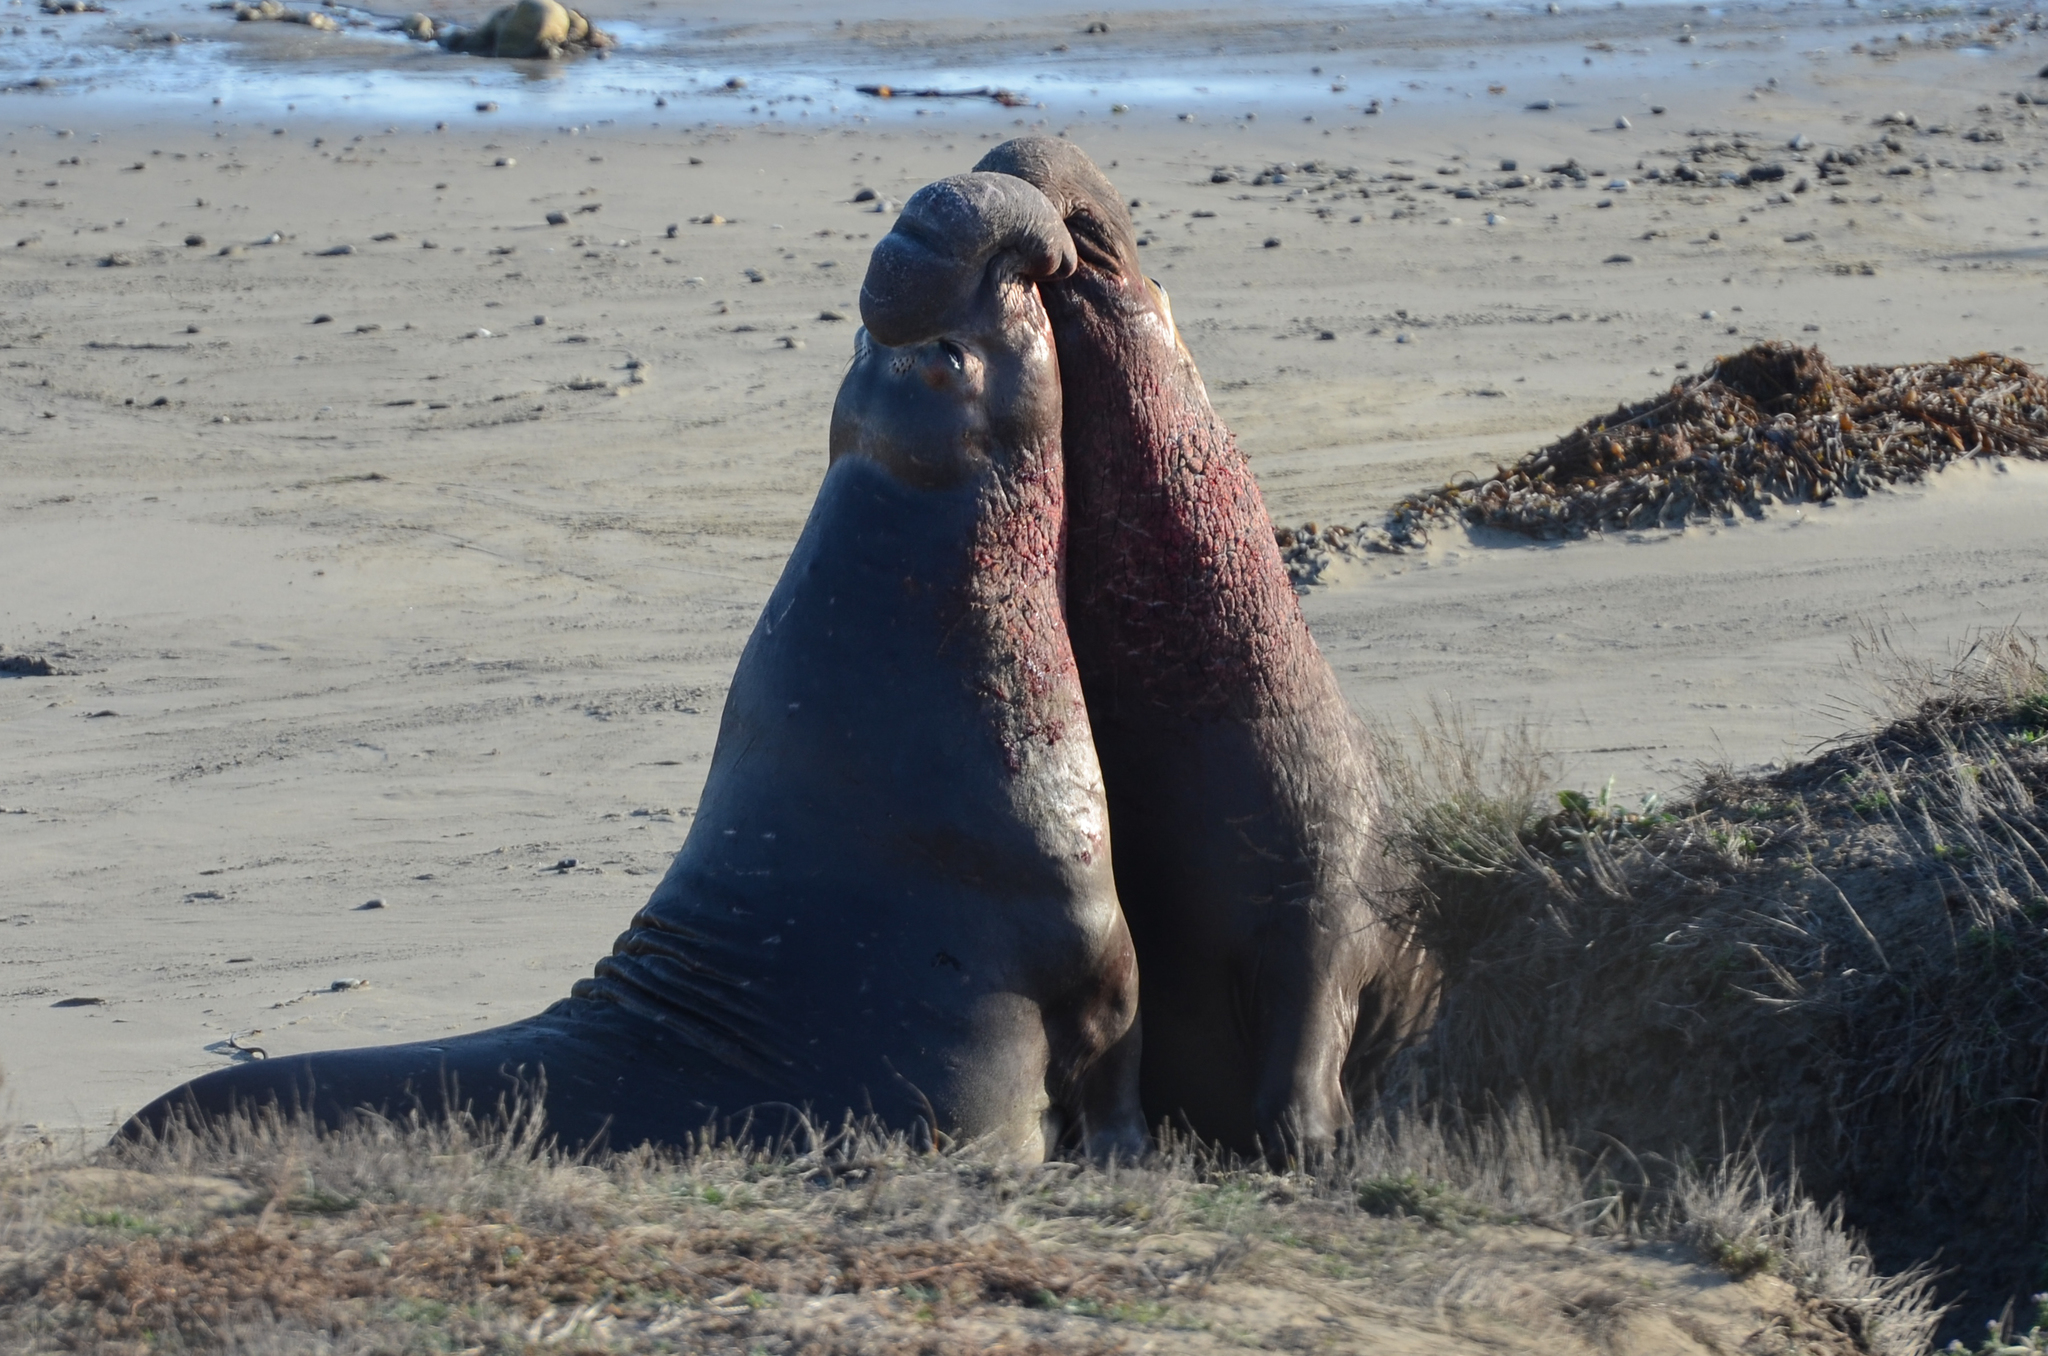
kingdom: Animalia
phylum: Chordata
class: Mammalia
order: Carnivora
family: Phocidae
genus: Mirounga
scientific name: Mirounga angustirostris
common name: Northern elephant seal
